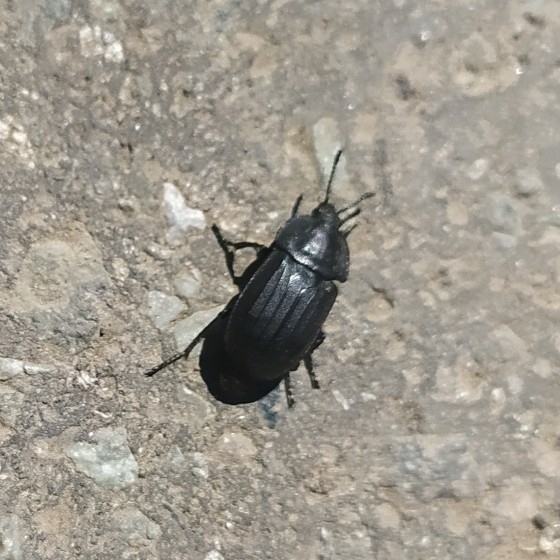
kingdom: Animalia
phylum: Arthropoda
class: Insecta
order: Coleoptera
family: Staphylinidae
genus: Silpha
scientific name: Silpha tristis
